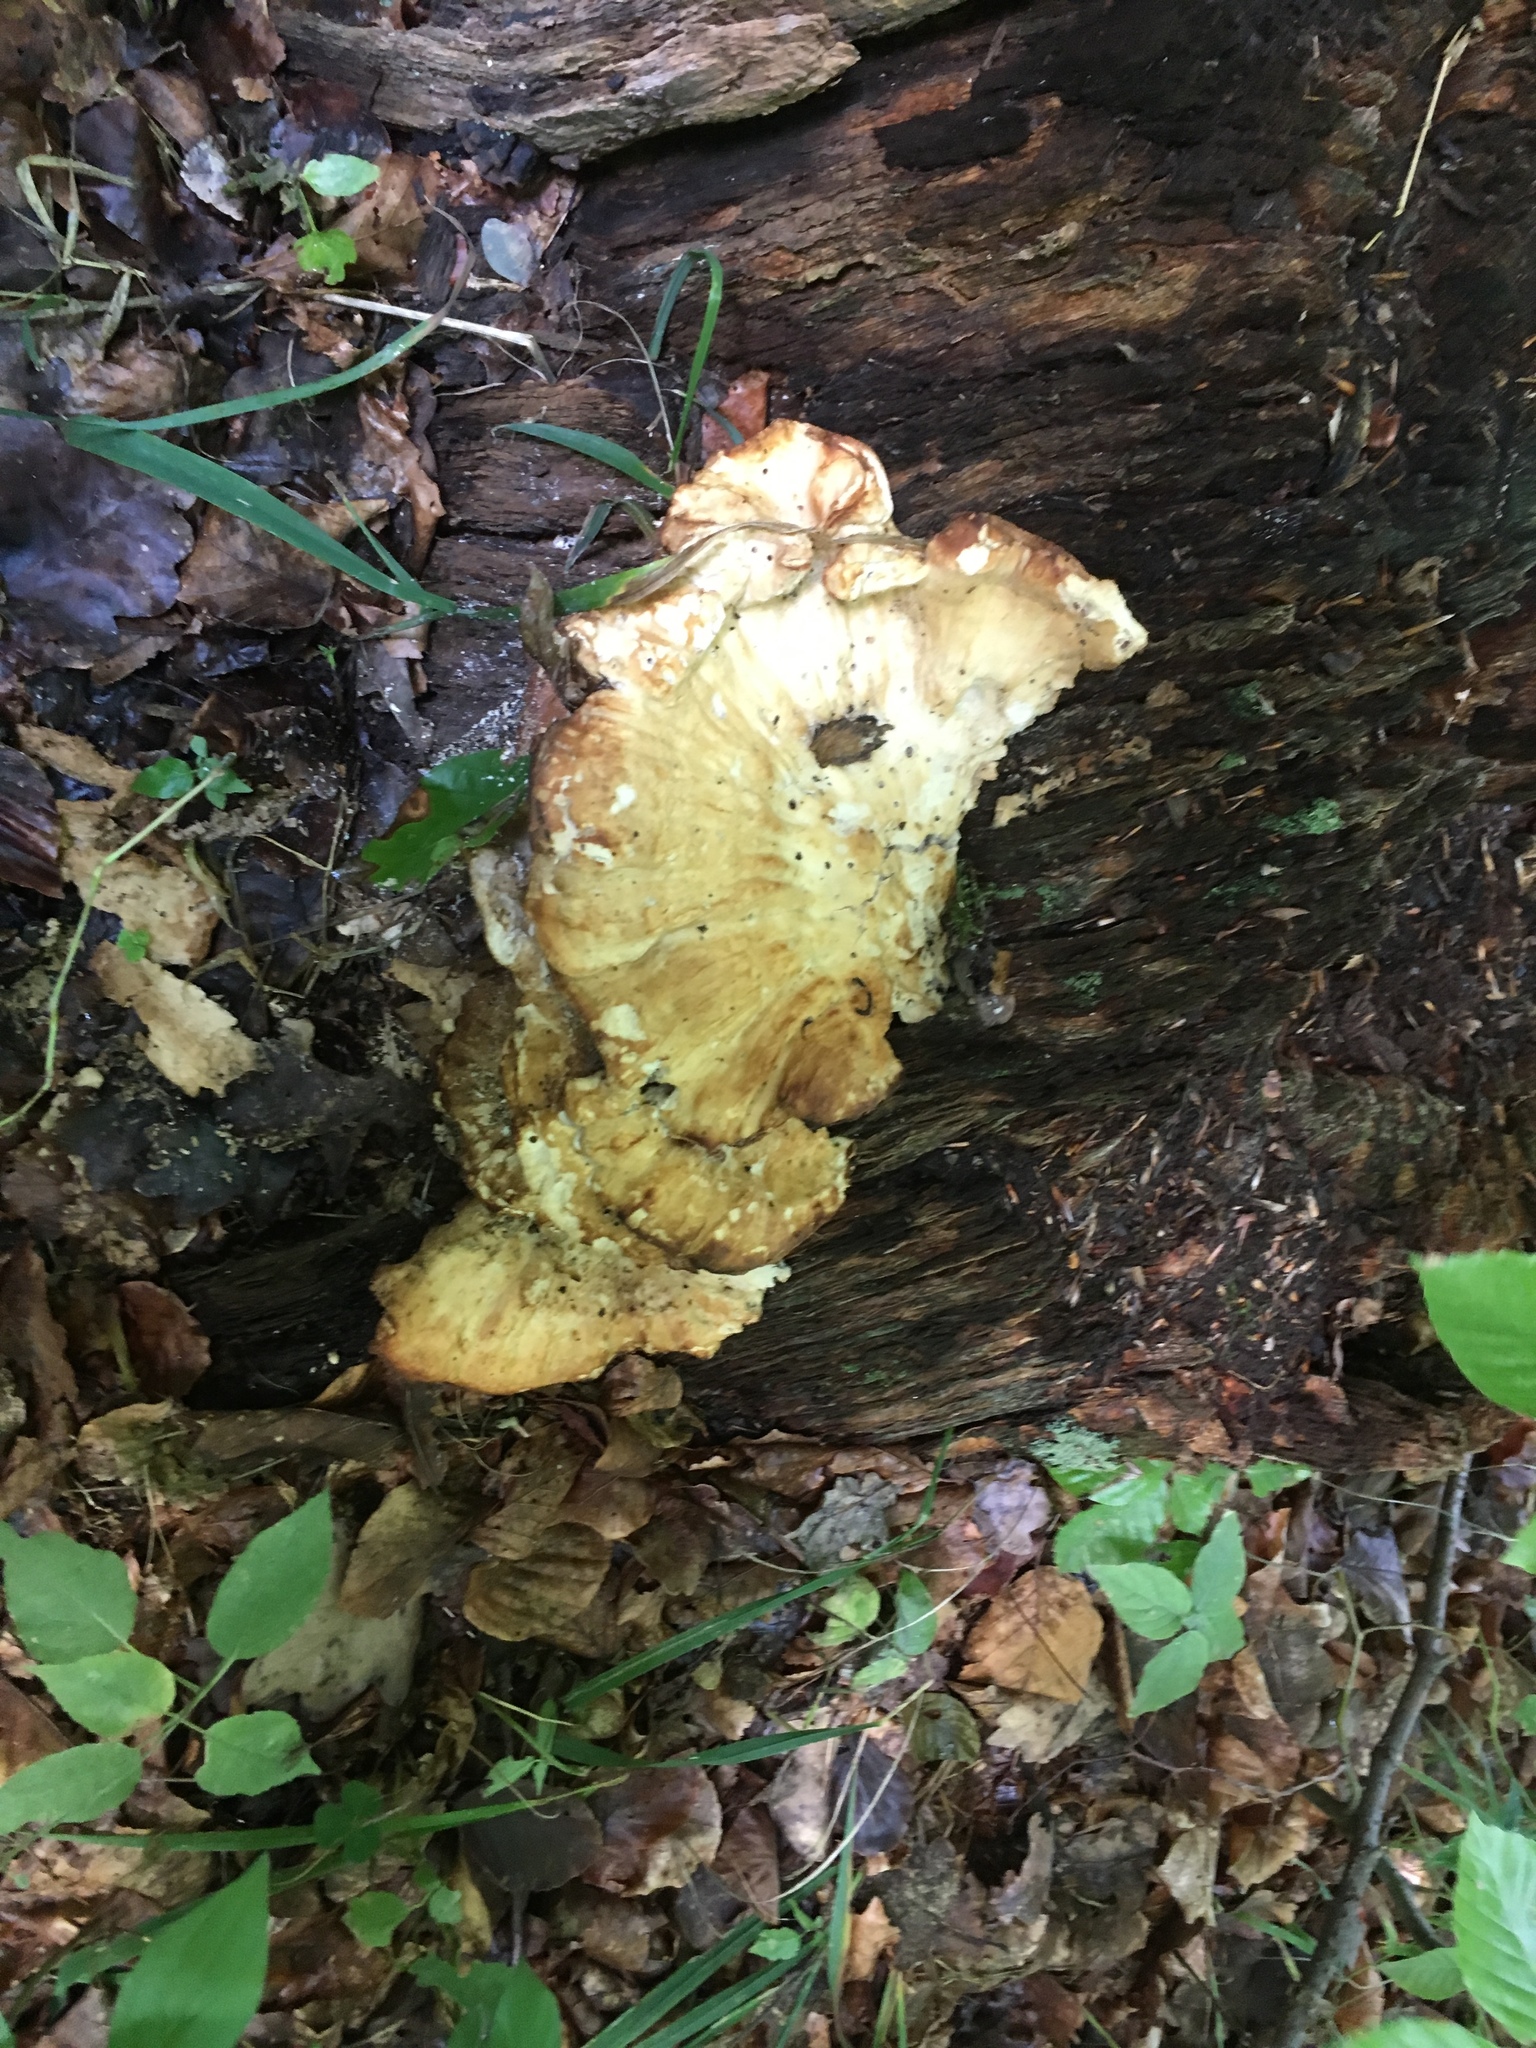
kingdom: Fungi
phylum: Basidiomycota
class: Agaricomycetes
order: Polyporales
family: Laetiporaceae
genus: Laetiporus
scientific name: Laetiporus sulphureus
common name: Chicken of the woods
